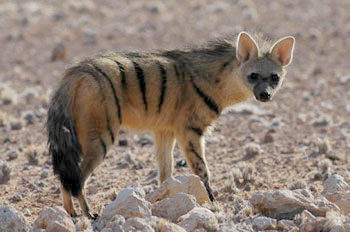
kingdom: Animalia
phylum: Chordata
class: Mammalia
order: Carnivora
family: Hyaenidae
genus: Proteles
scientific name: Proteles cristata
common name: Aardwolf
